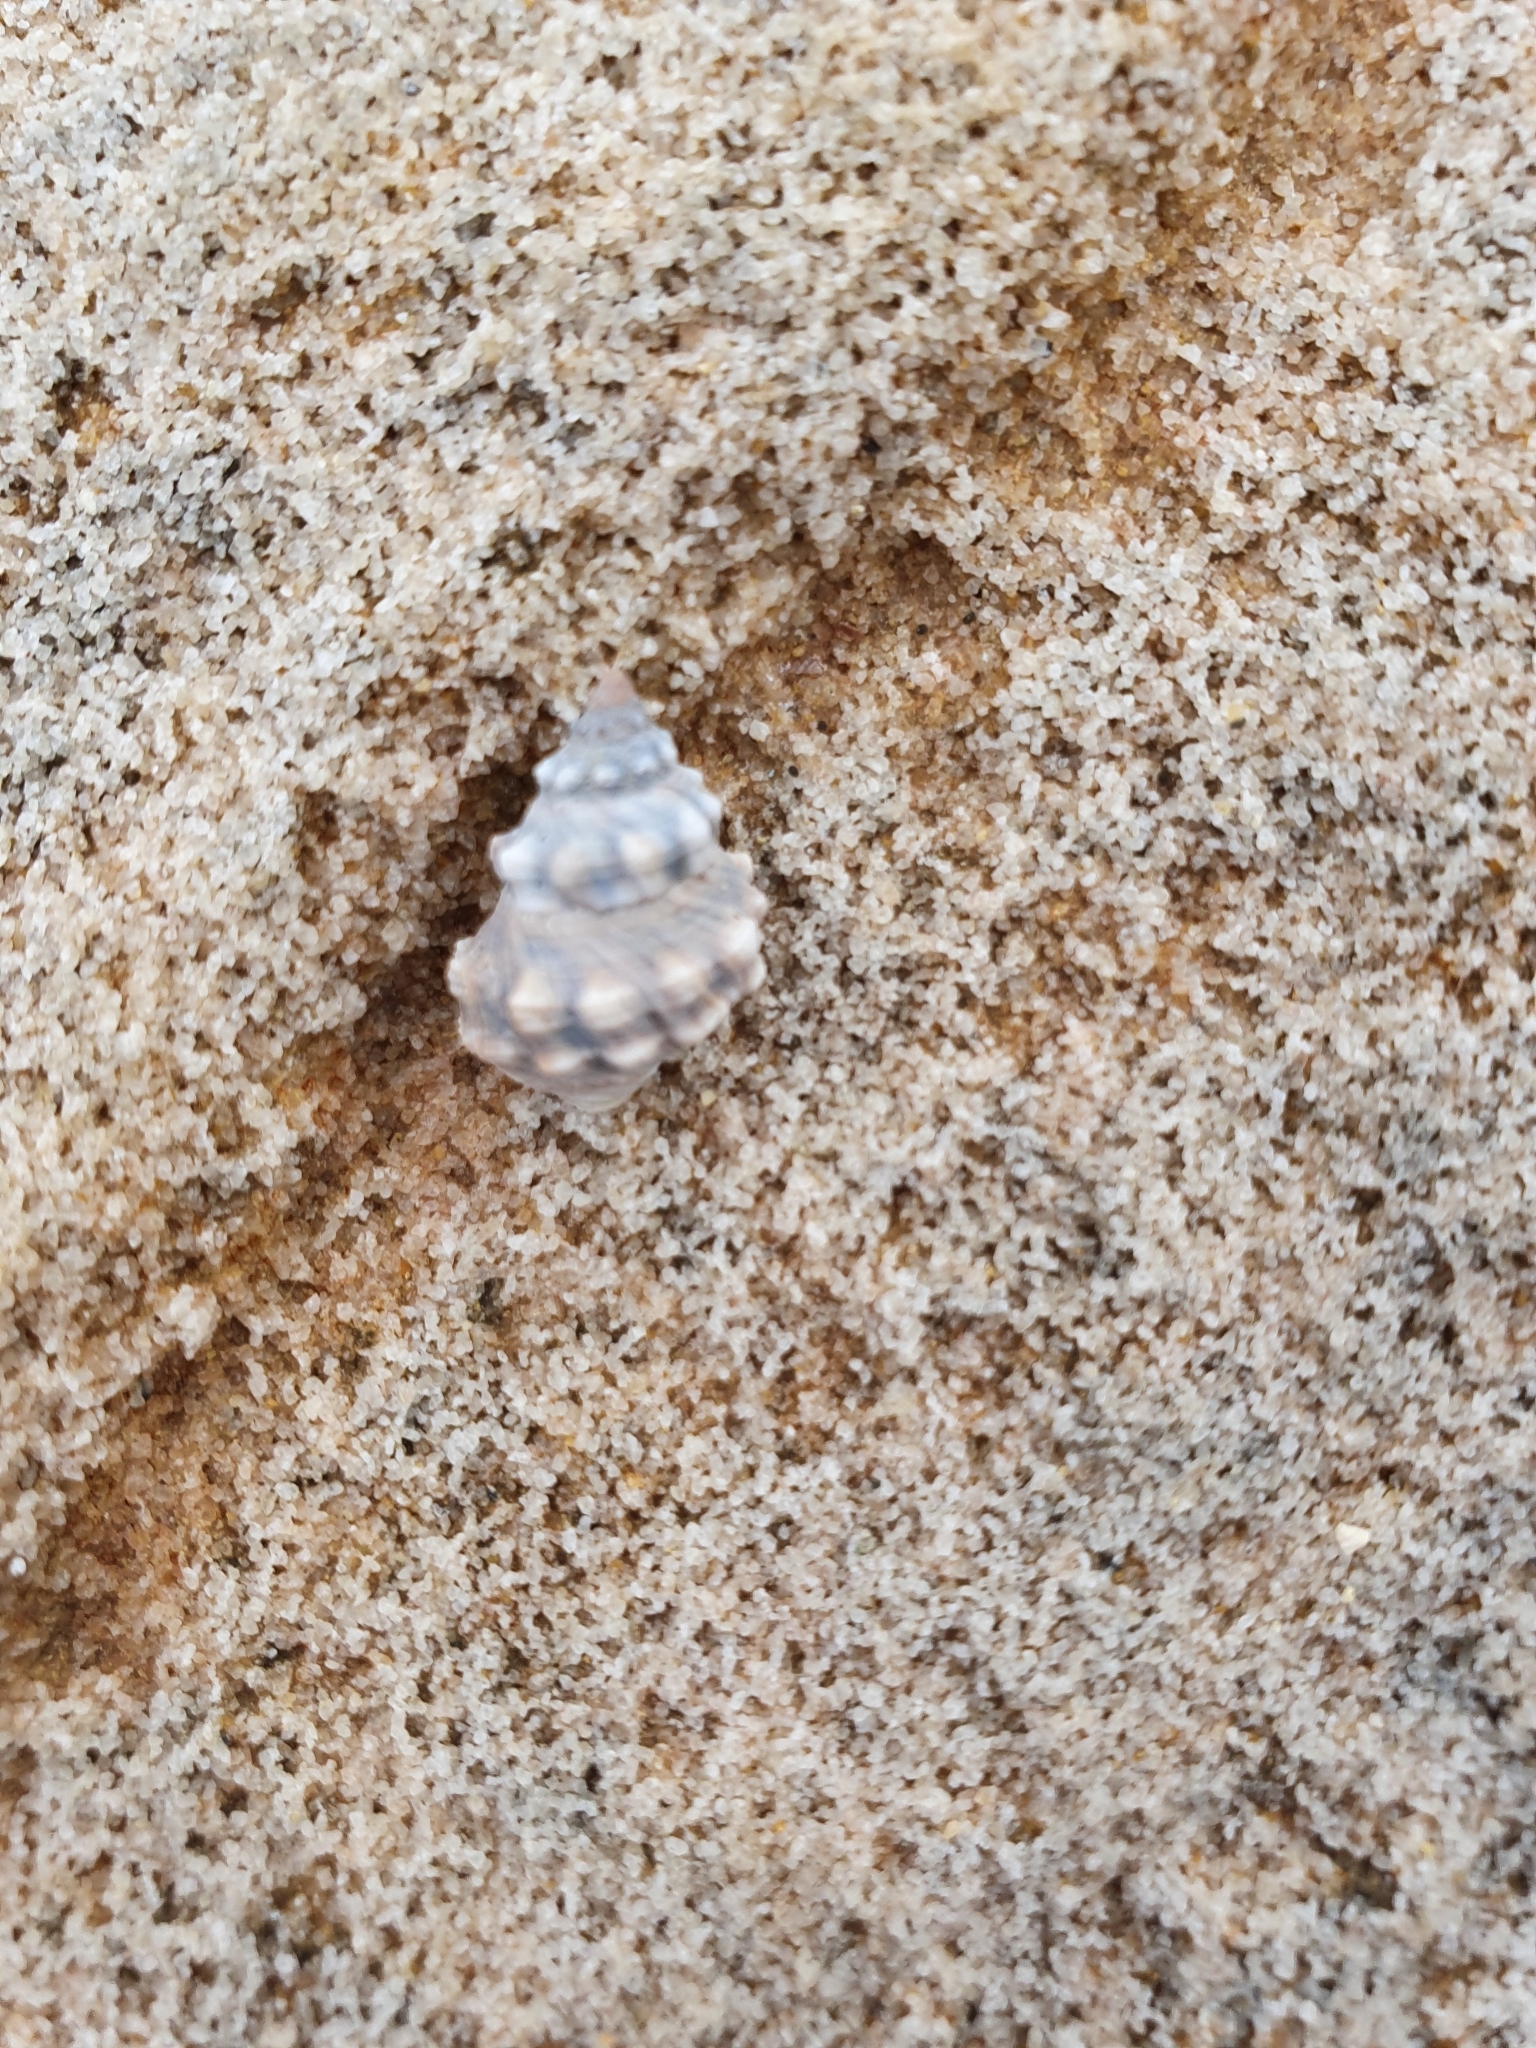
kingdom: Animalia
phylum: Mollusca
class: Gastropoda
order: Littorinimorpha
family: Littorinidae
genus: Nodilittorina
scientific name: Nodilittorina pyramidalis
